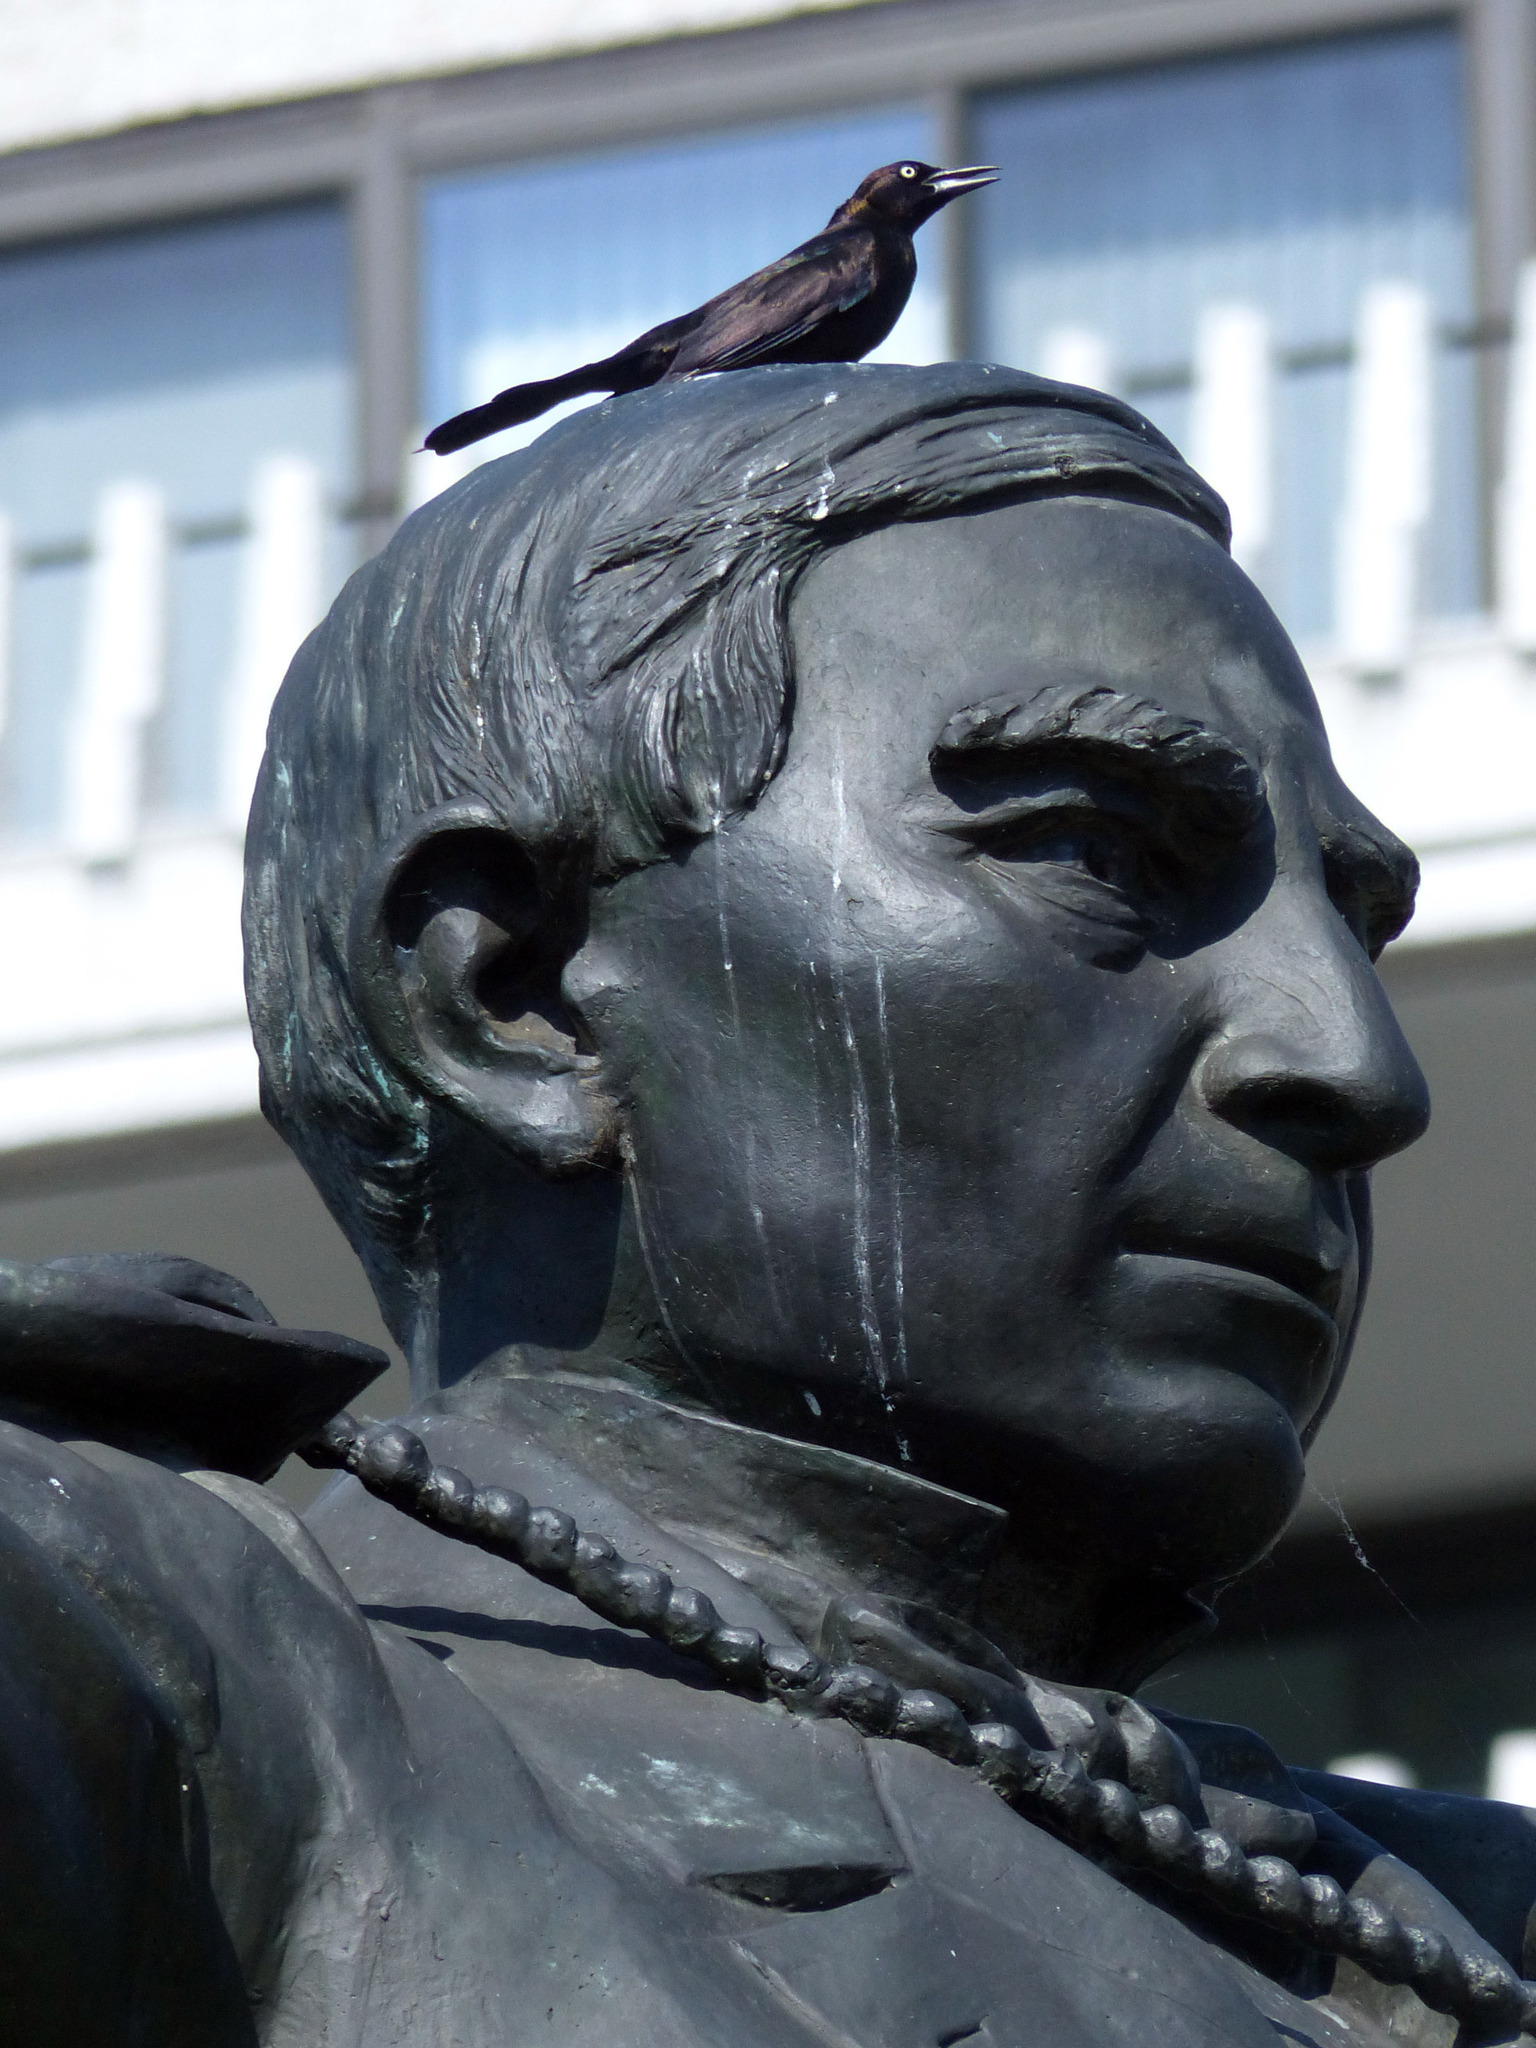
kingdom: Animalia
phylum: Chordata
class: Aves
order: Passeriformes
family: Icteridae
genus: Quiscalus
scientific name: Quiscalus quiscula
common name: Common grackle
